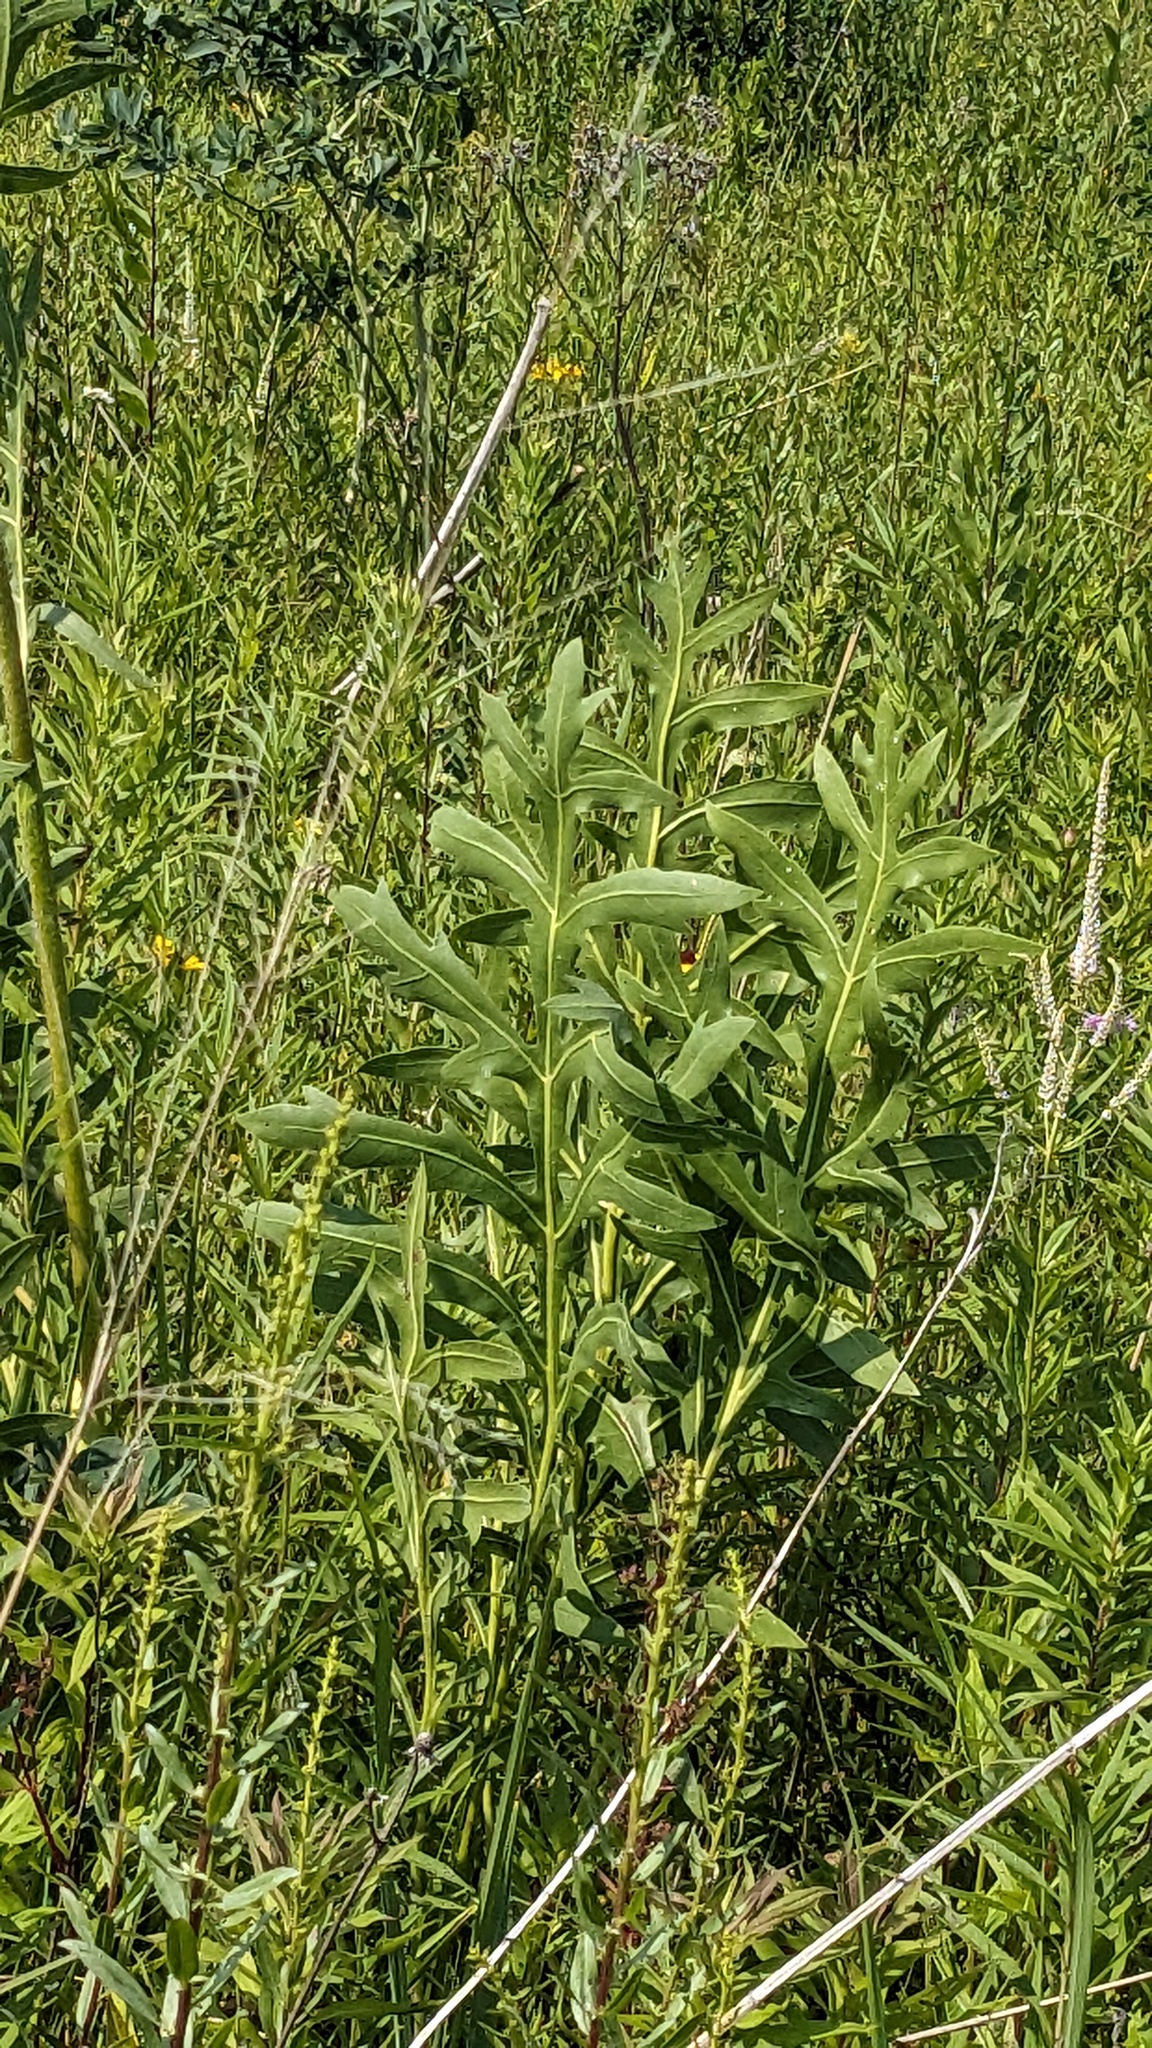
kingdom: Plantae
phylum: Tracheophyta
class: Magnoliopsida
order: Asterales
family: Asteraceae
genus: Silphium
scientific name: Silphium laciniatum
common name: Polarplant
